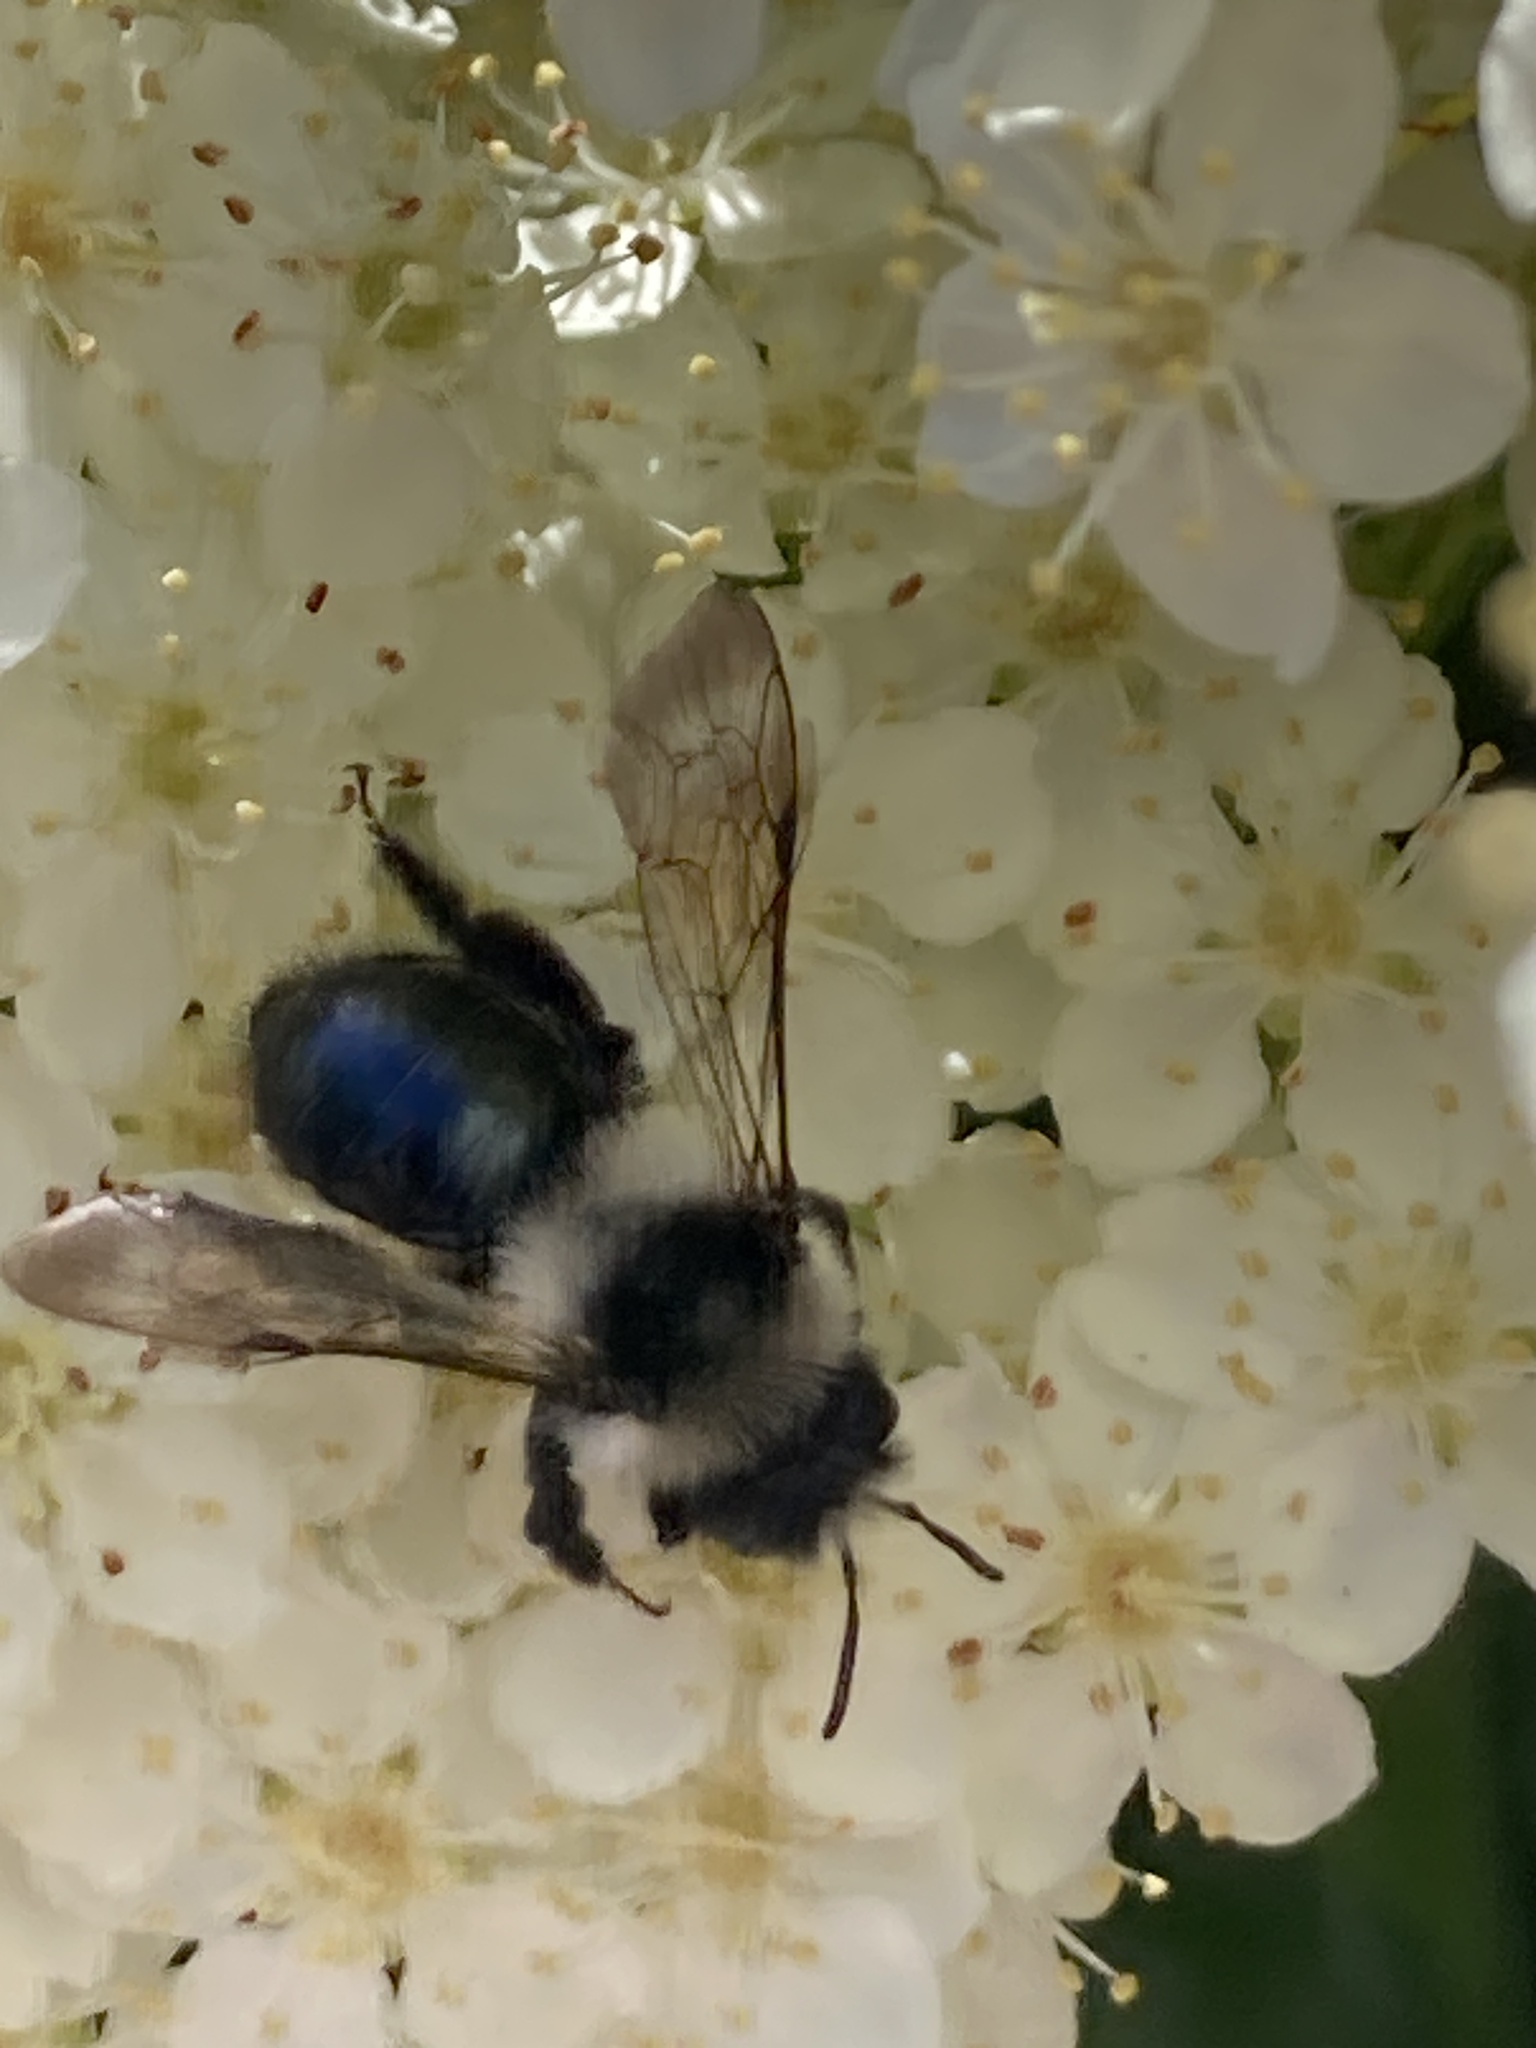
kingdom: Animalia
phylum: Arthropoda
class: Insecta
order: Hymenoptera
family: Andrenidae
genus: Andrena
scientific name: Andrena cineraria
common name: Ashy mining bee
